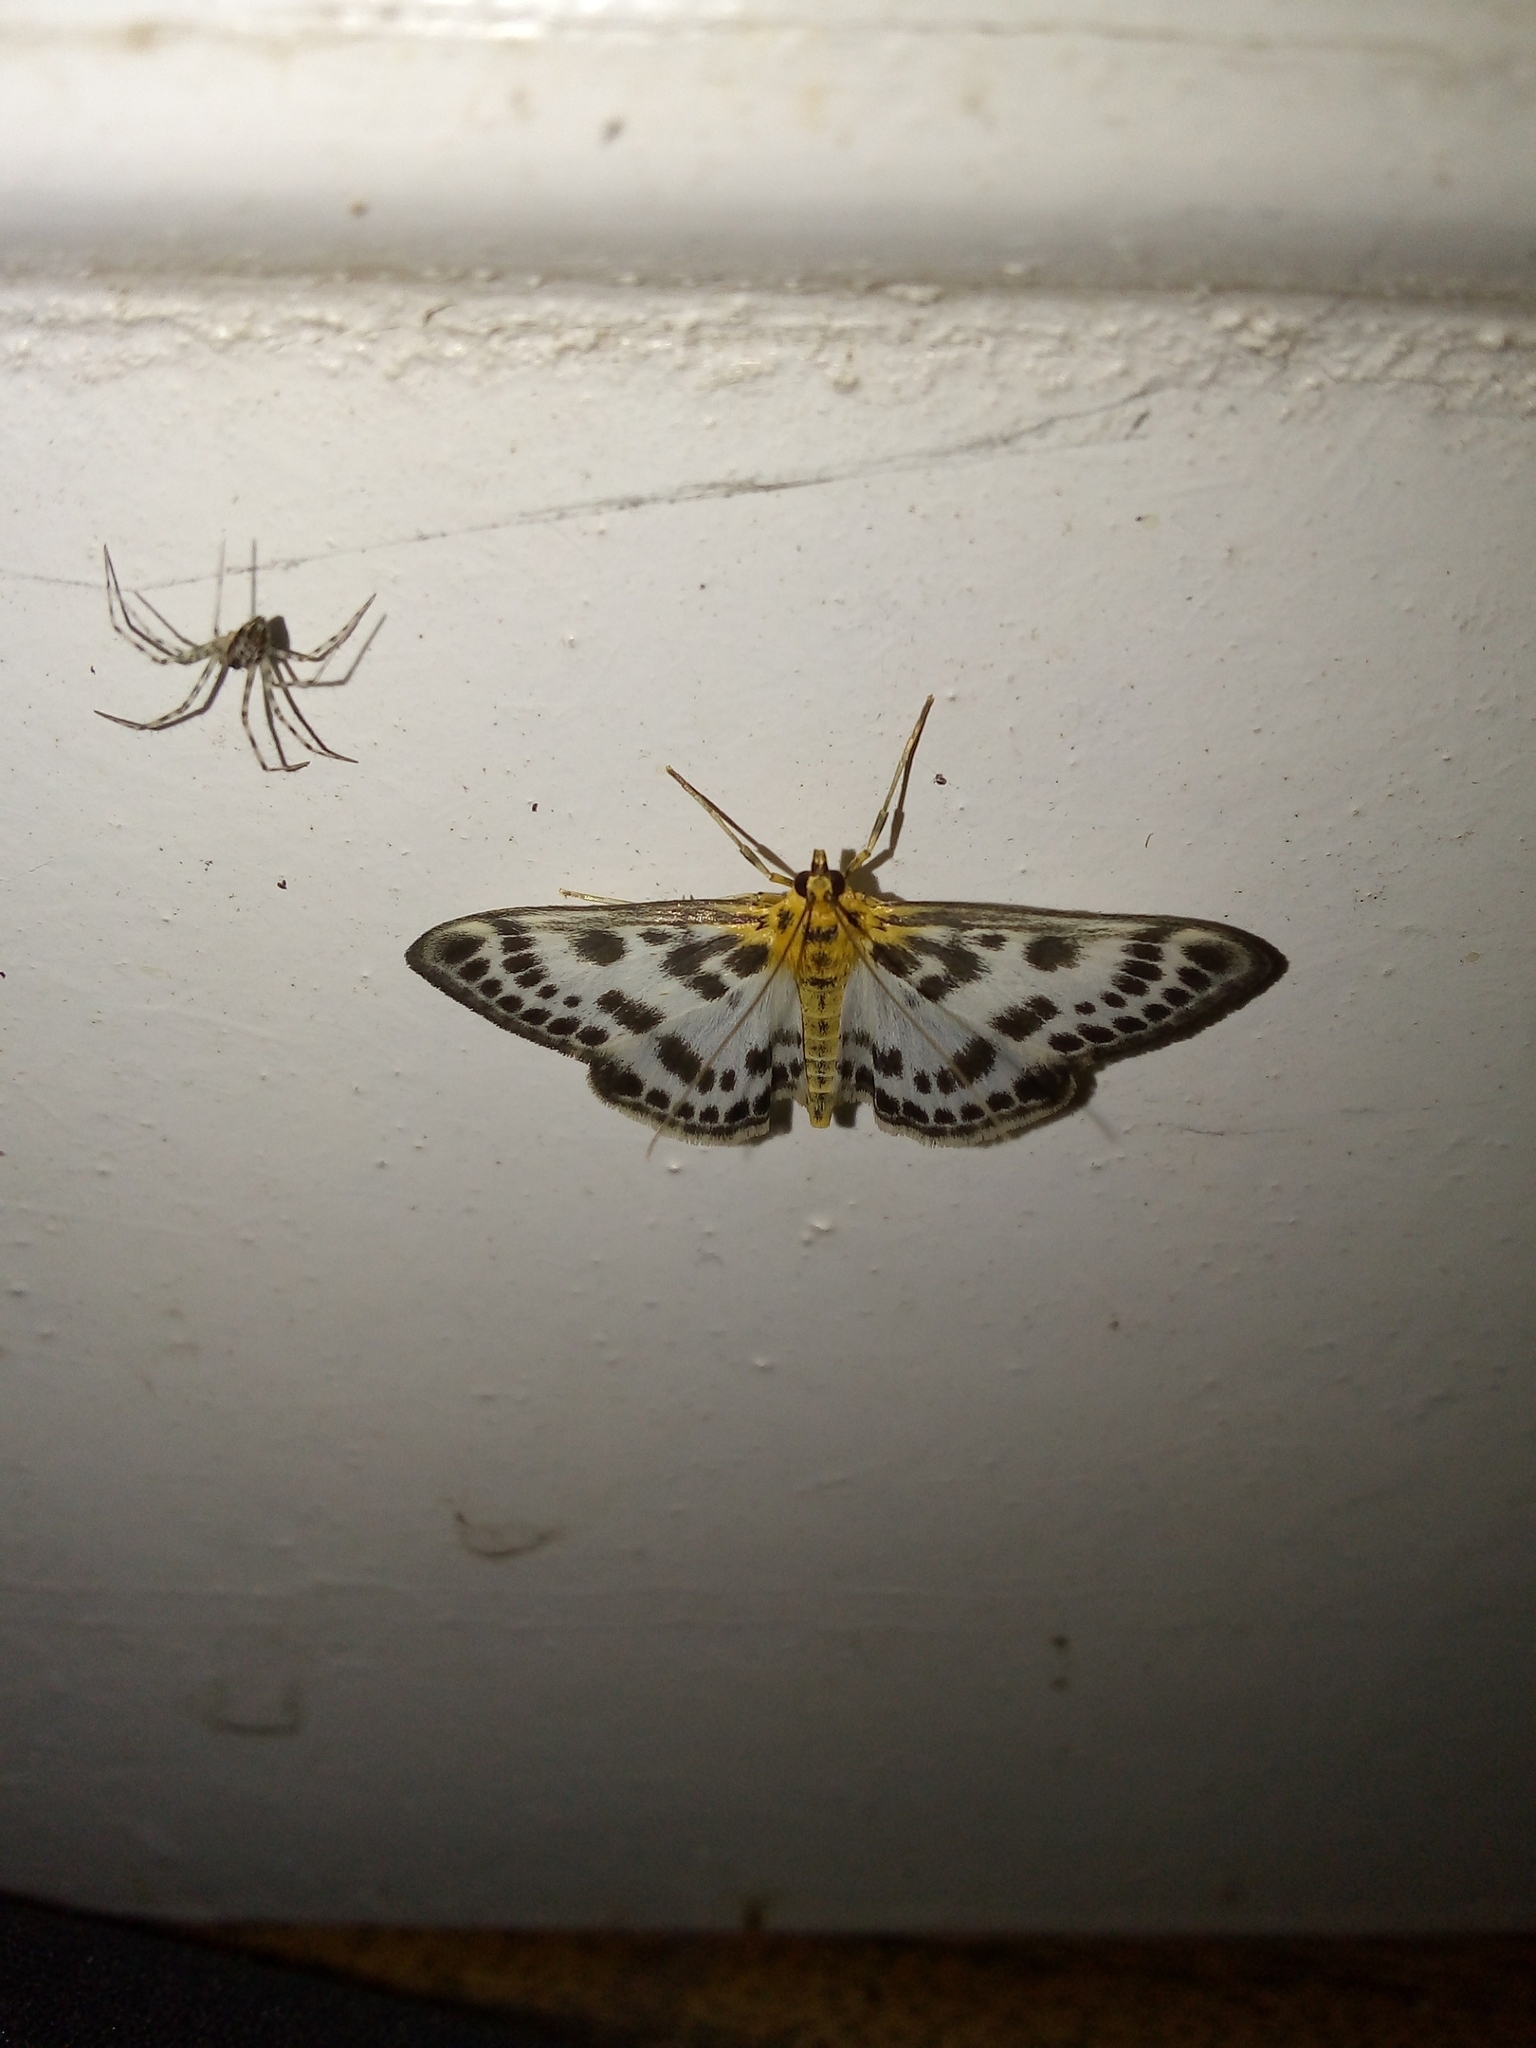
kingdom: Animalia
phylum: Arthropoda
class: Insecta
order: Lepidoptera
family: Crambidae
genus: Anania
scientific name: Anania hortulata
